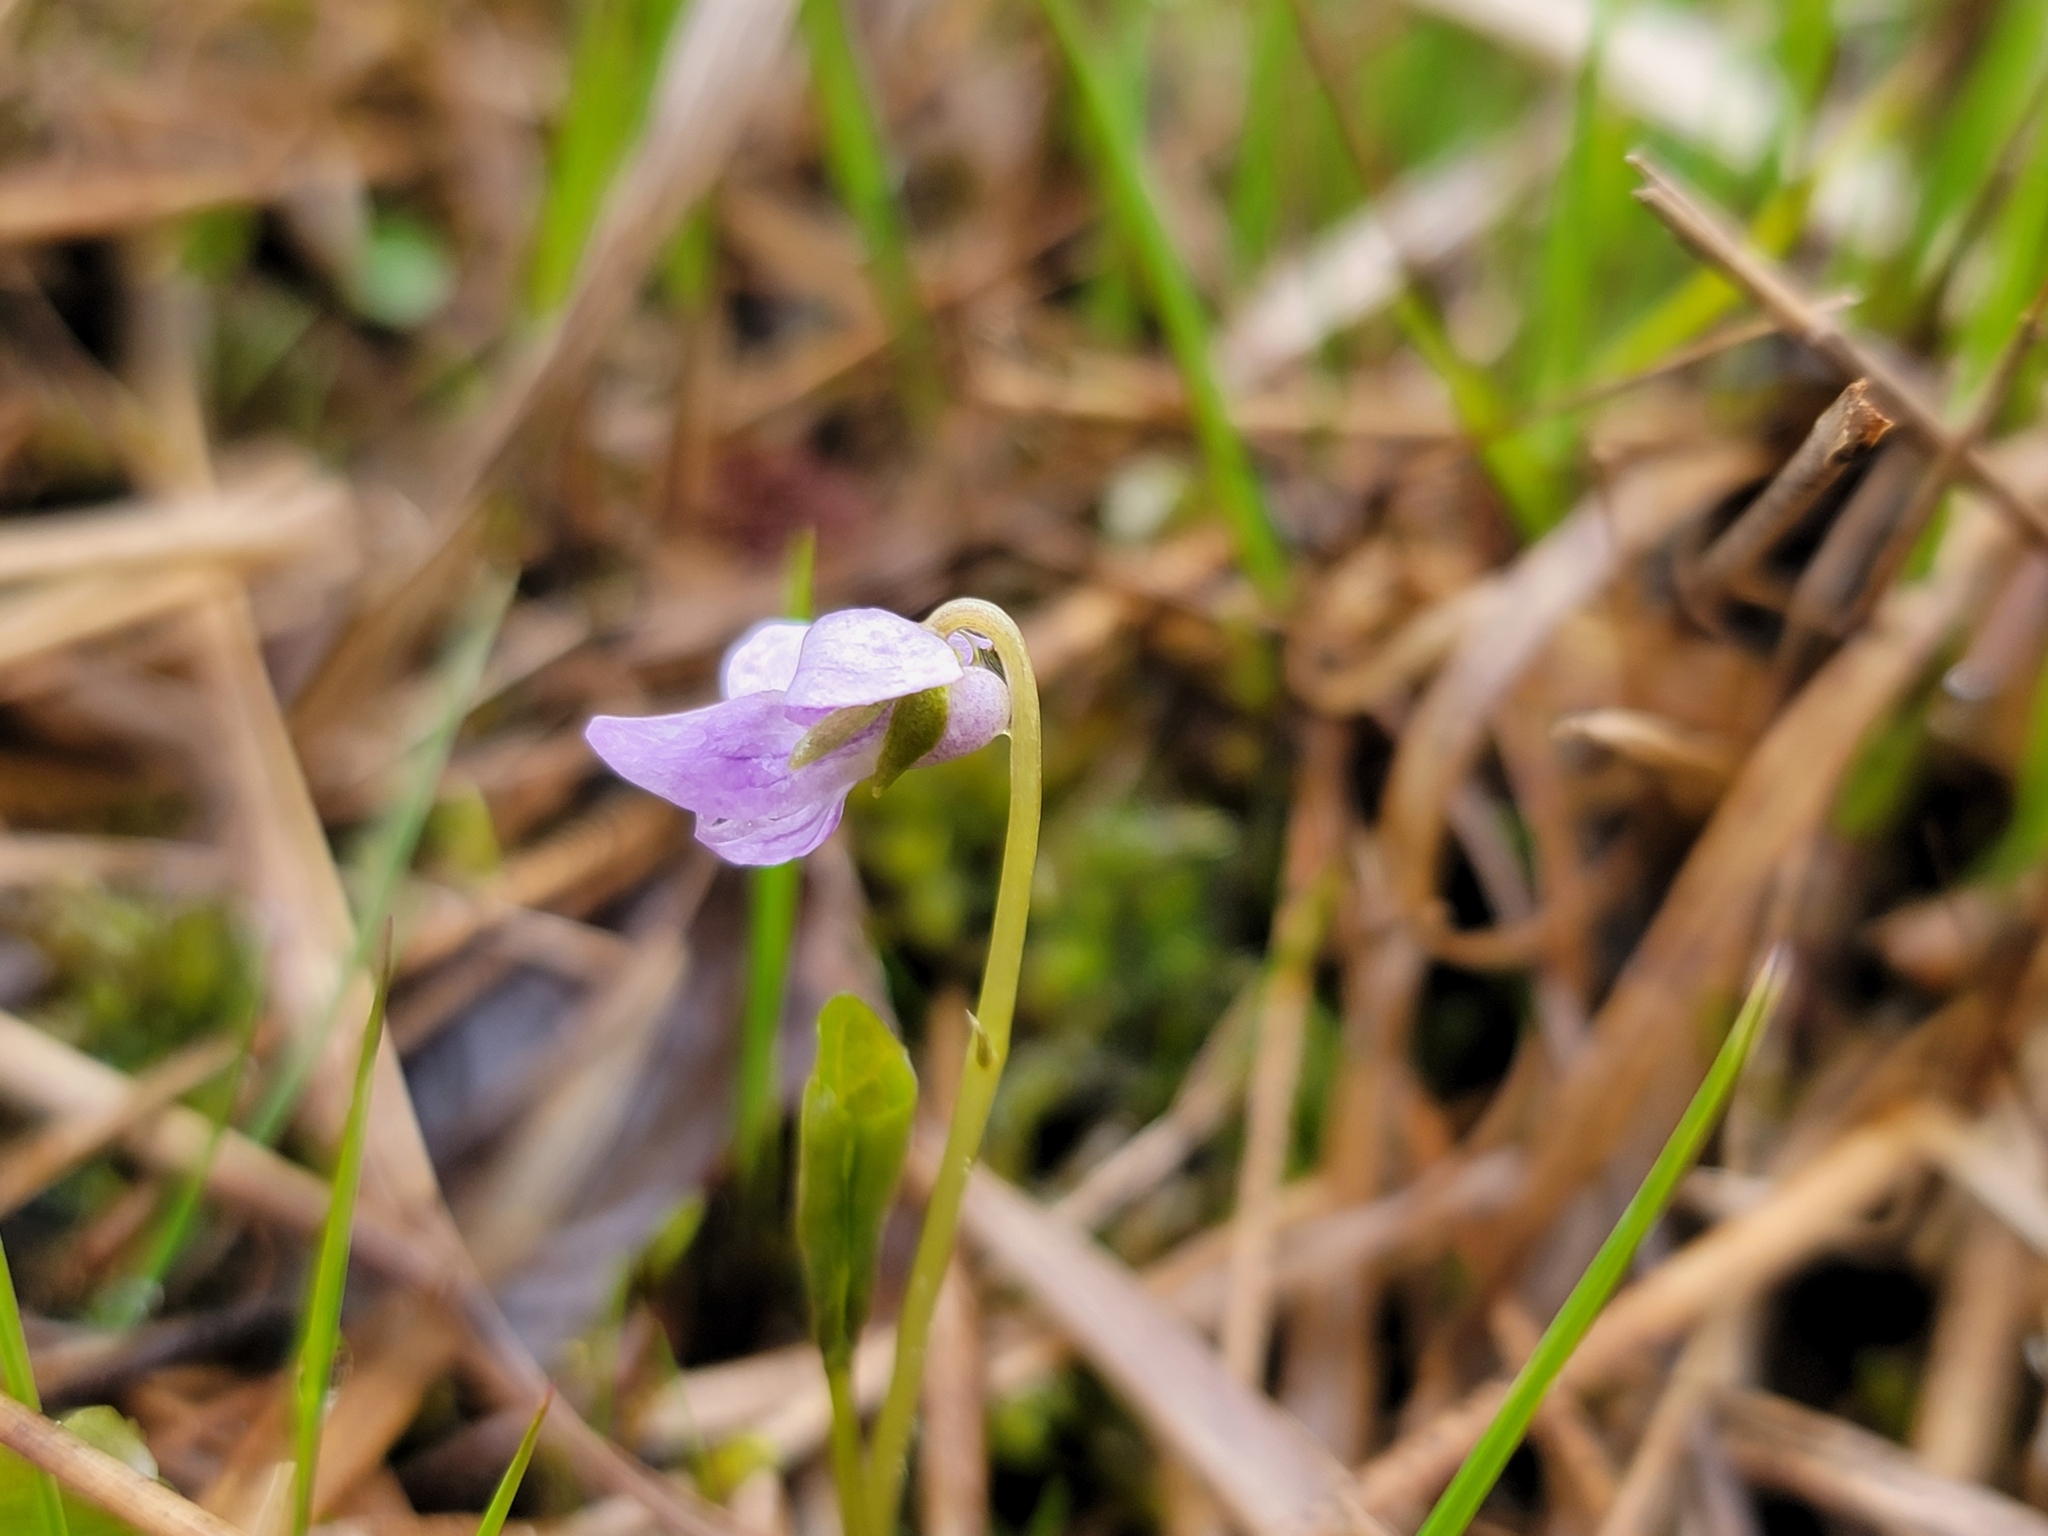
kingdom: Plantae
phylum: Tracheophyta
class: Magnoliopsida
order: Malpighiales
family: Violaceae
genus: Viola
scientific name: Viola palustris
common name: Marsh violet
